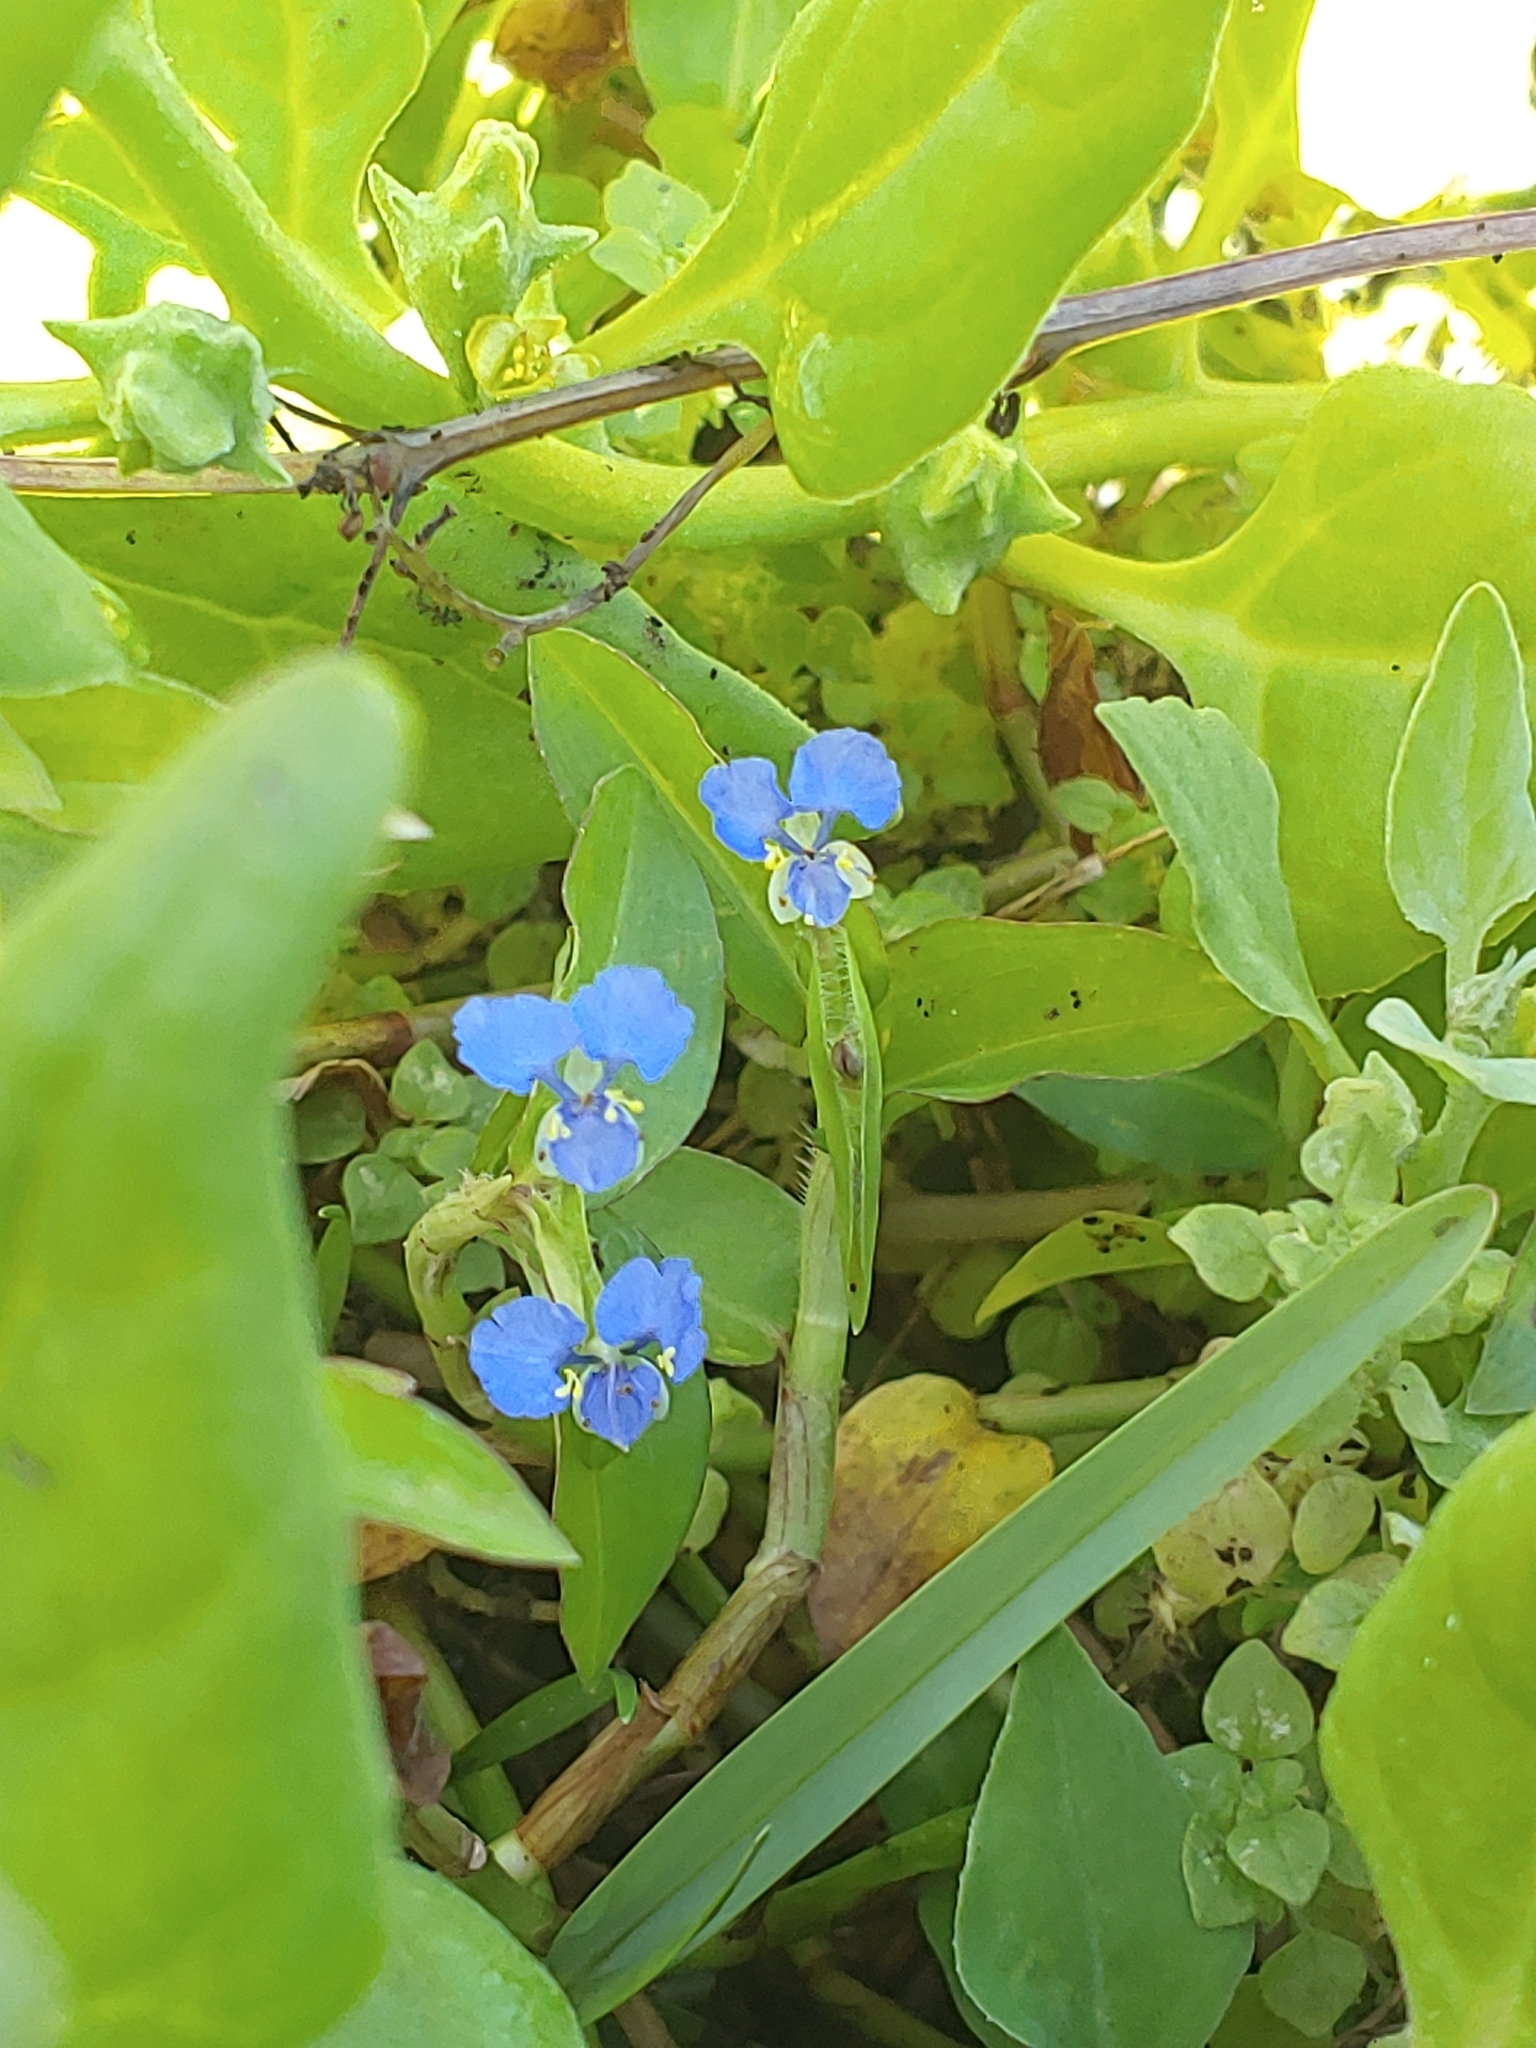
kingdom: Plantae
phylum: Tracheophyta
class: Liliopsida
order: Commelinales
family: Commelinaceae
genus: Commelina
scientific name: Commelina diffusa
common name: Climbing dayflower
